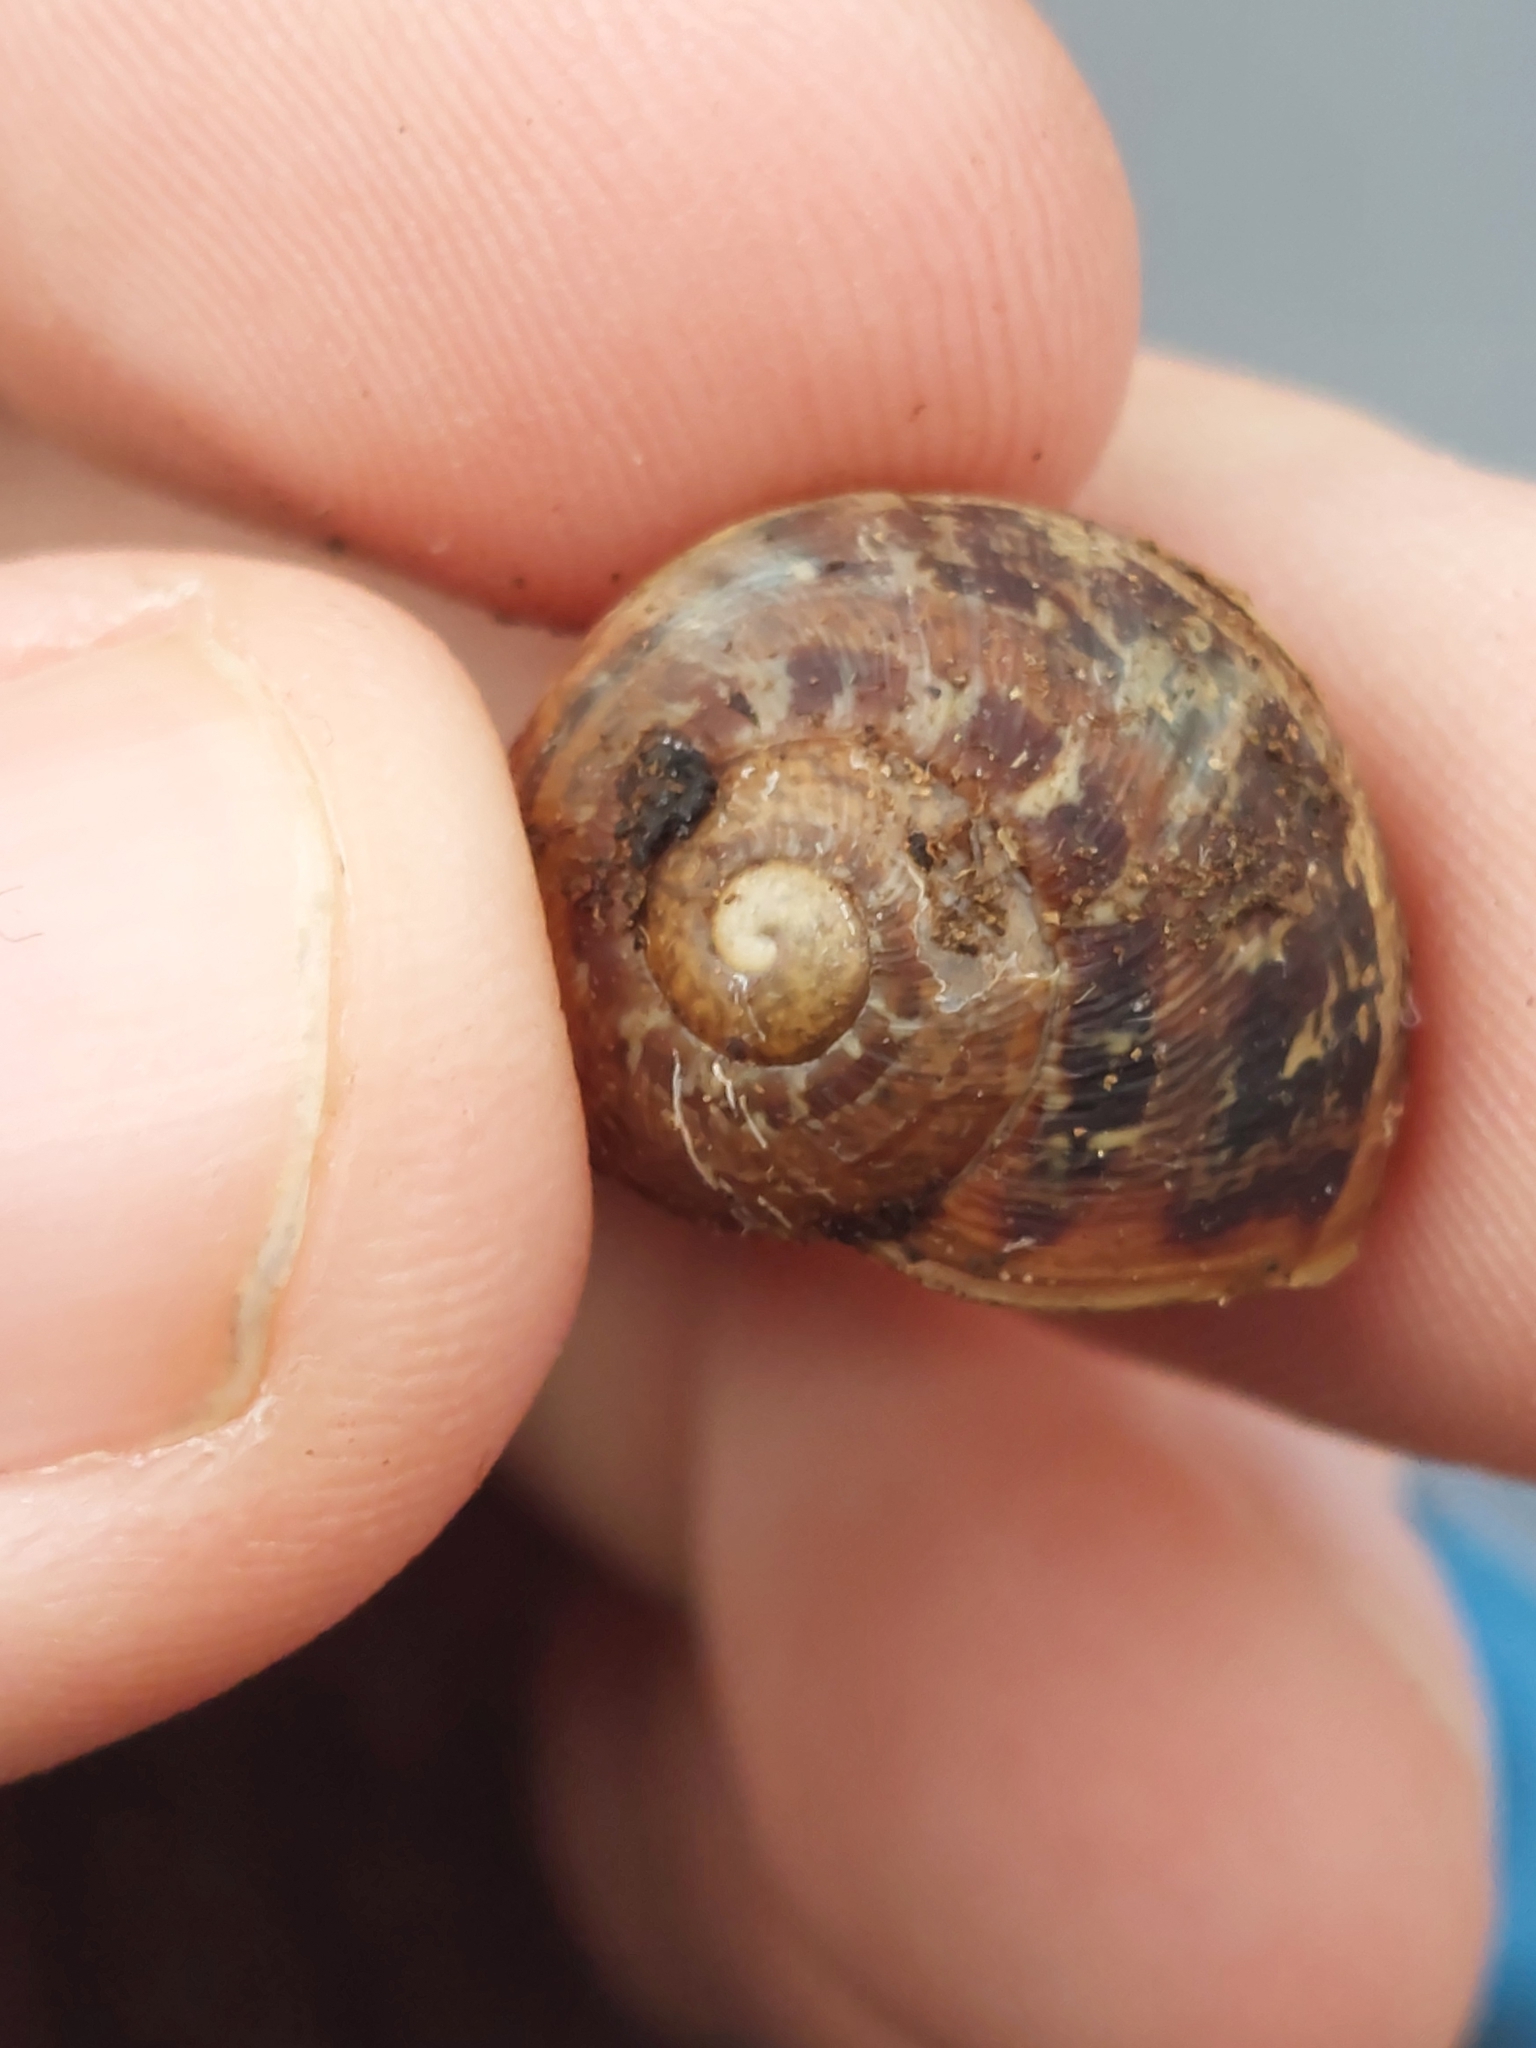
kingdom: Animalia
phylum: Mollusca
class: Gastropoda
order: Stylommatophora
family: Helicidae
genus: Cornu
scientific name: Cornu aspersum
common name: Brown garden snail
